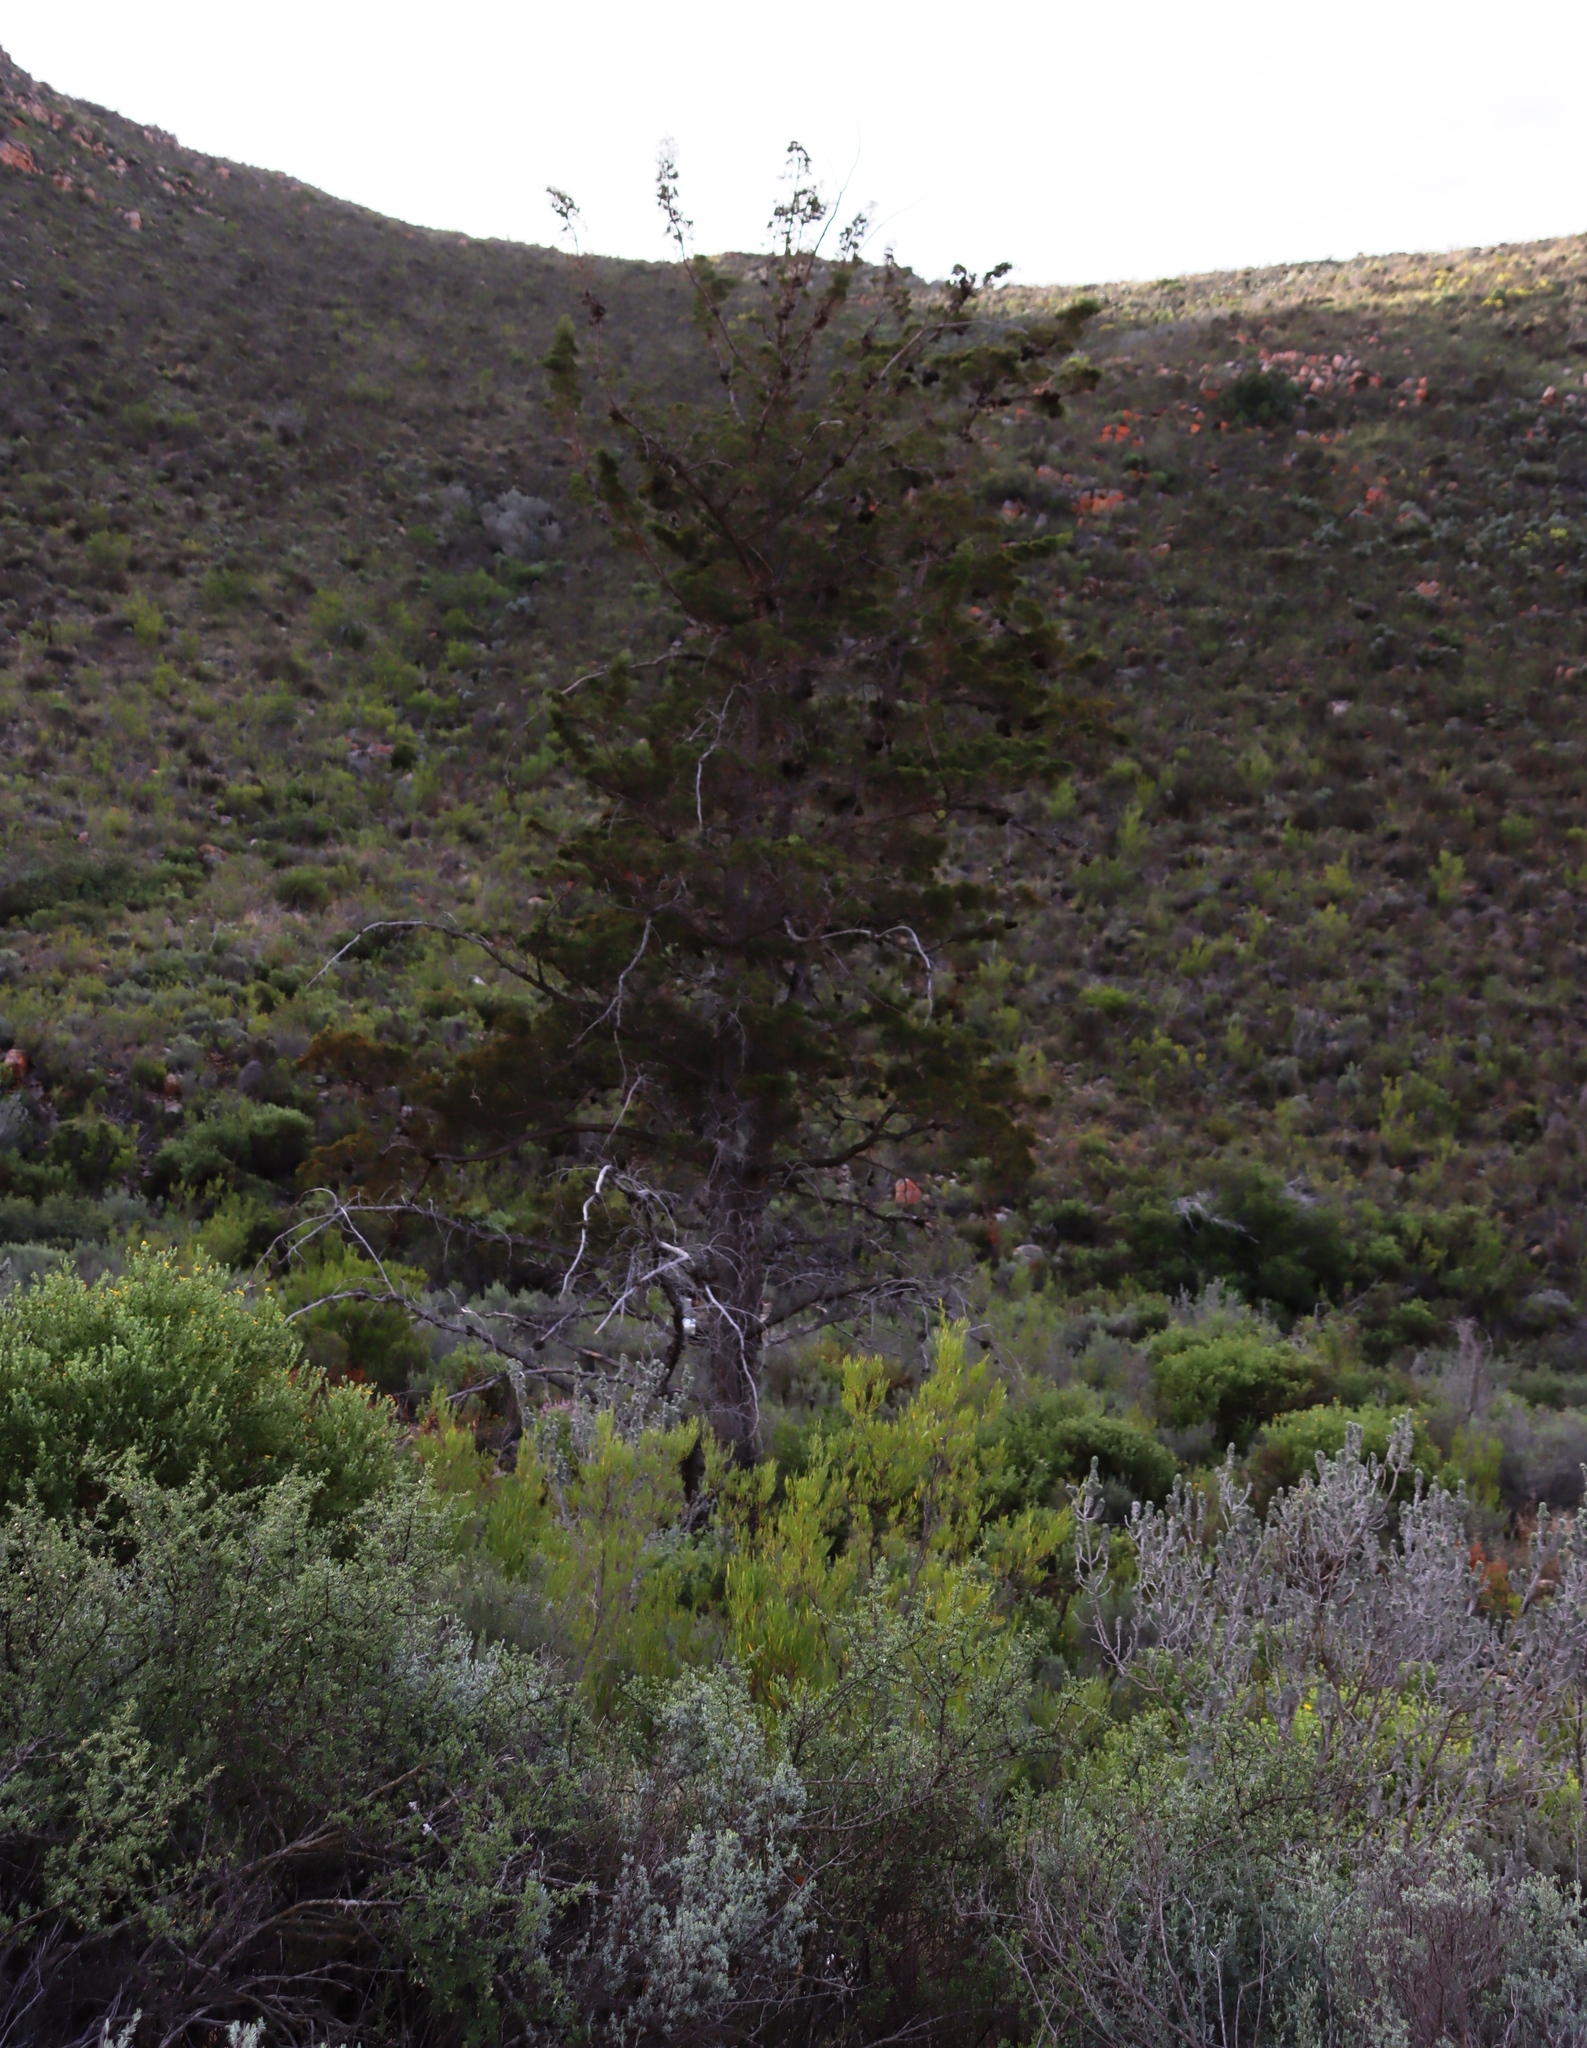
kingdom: Plantae
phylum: Tracheophyta
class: Pinopsida
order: Pinales
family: Cupressaceae
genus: Widdringtonia
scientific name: Widdringtonia schwarzii
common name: Baviaans cedar
